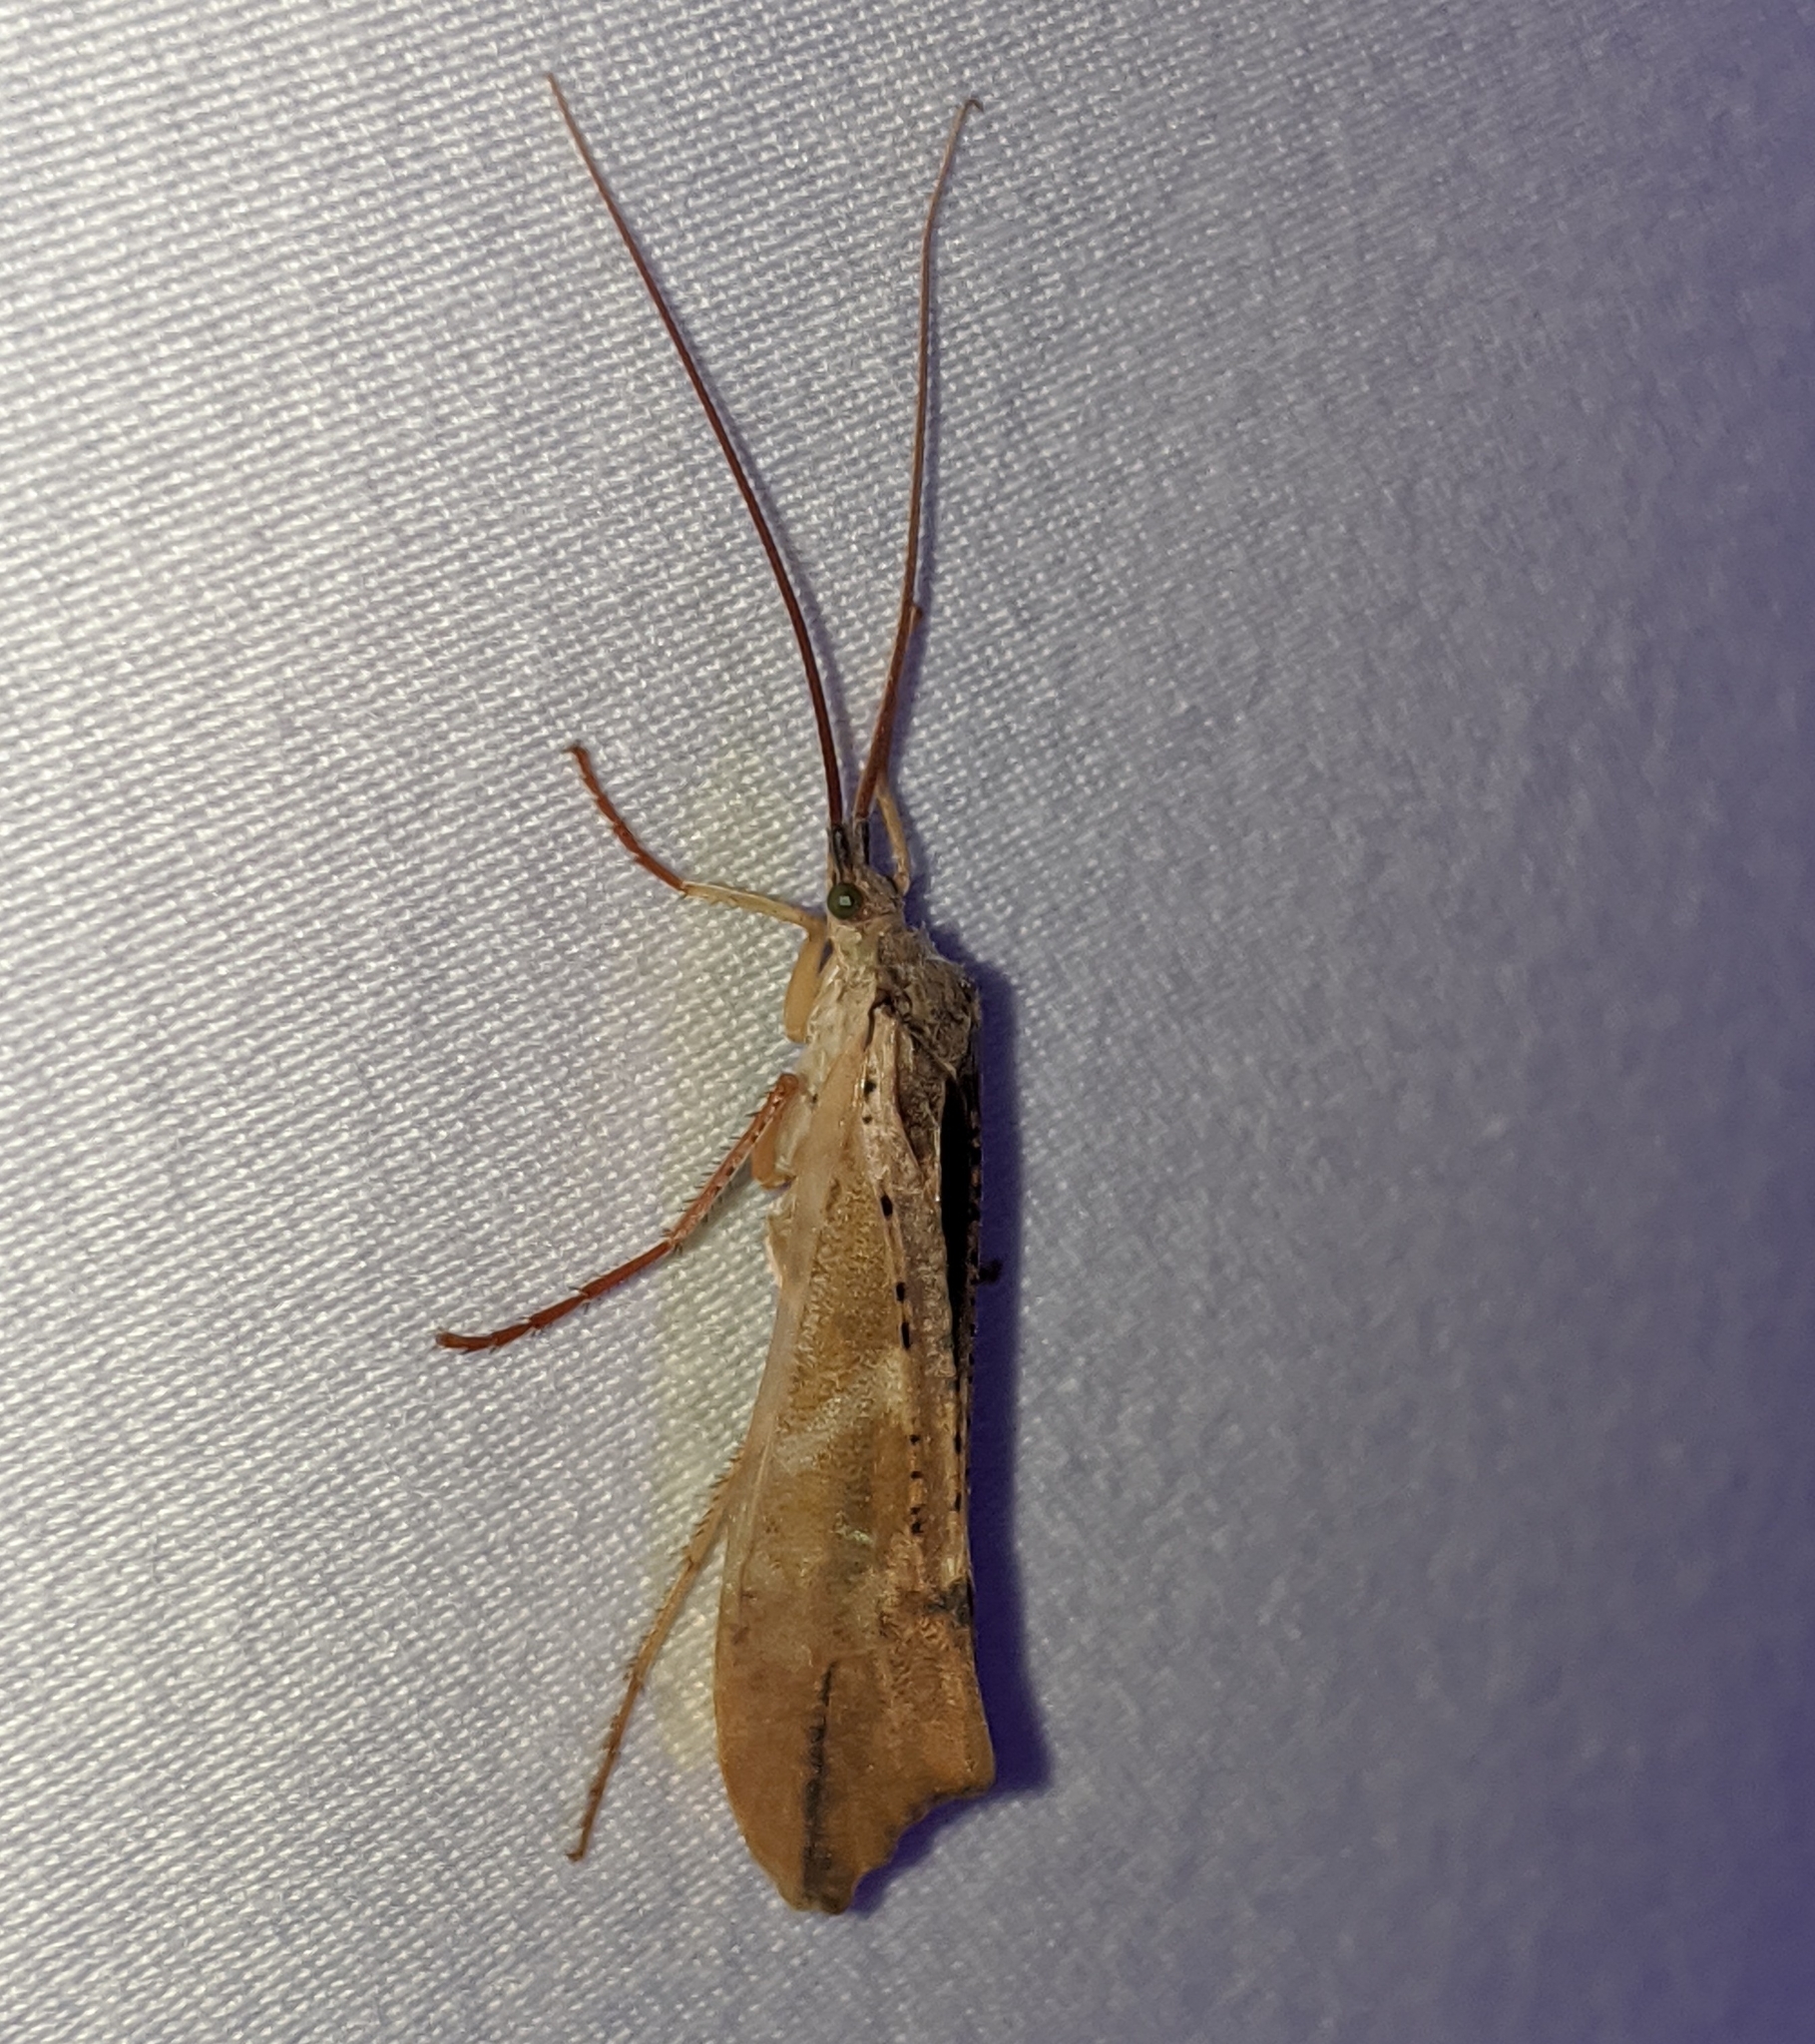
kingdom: Animalia
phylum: Arthropoda
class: Insecta
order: Trichoptera
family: Limnephilidae
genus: Nemotaulius
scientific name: Nemotaulius hostilis
